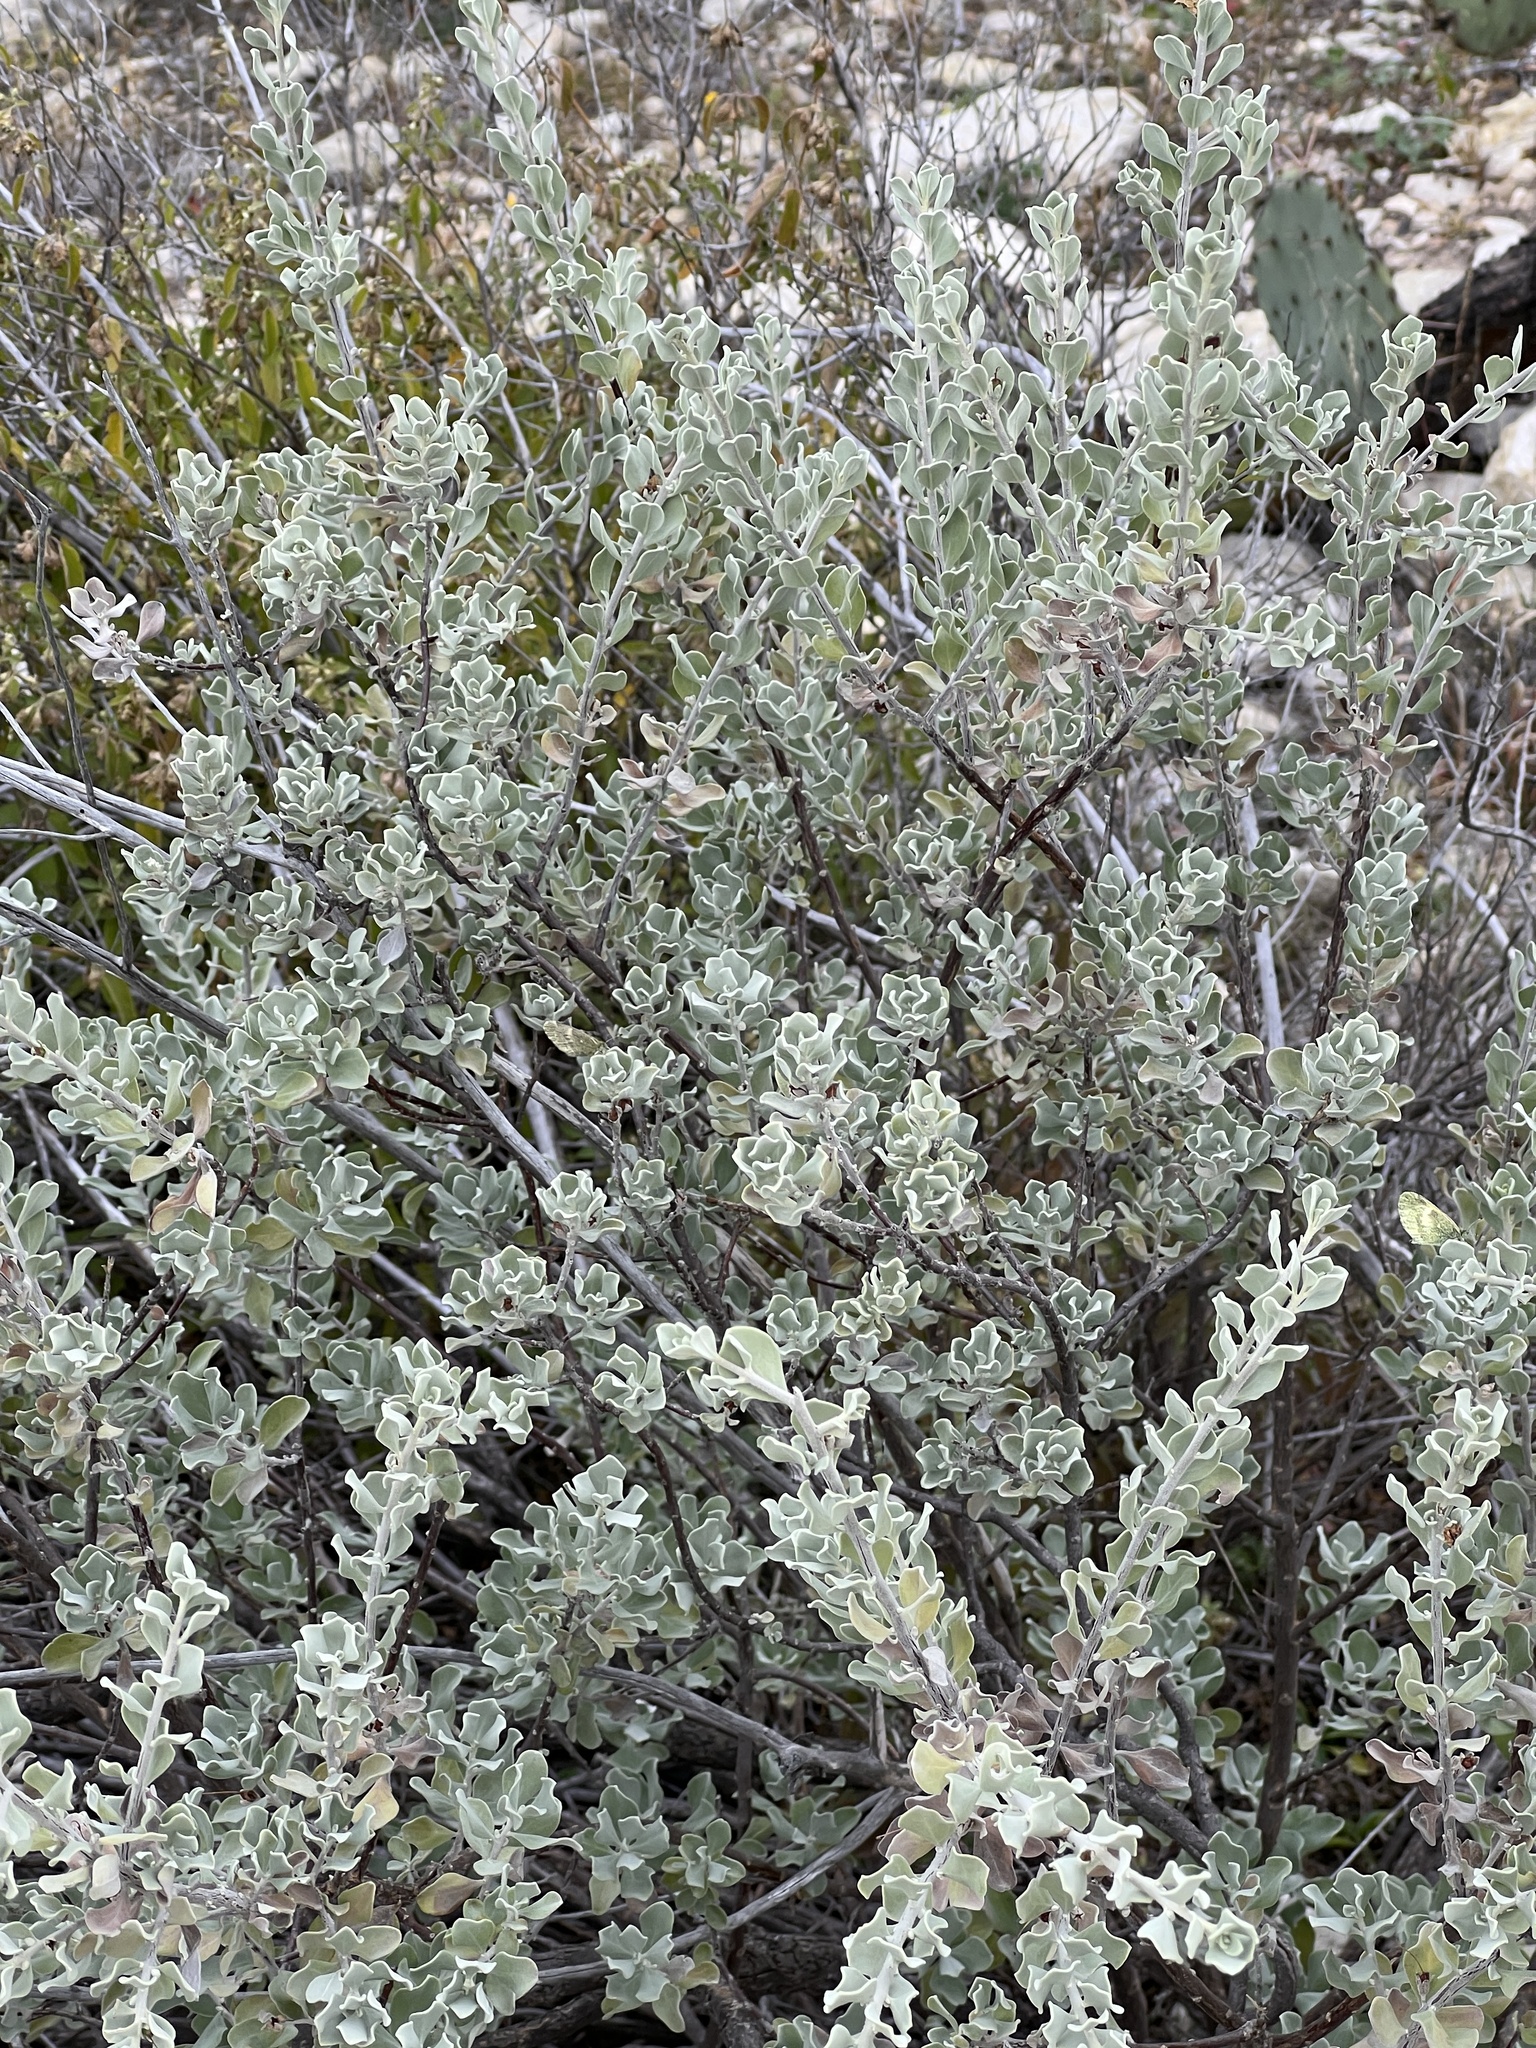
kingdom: Plantae
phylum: Tracheophyta
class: Magnoliopsida
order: Lamiales
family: Scrophulariaceae
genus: Leucophyllum
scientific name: Leucophyllum frutescens
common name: Texas silverleaf
